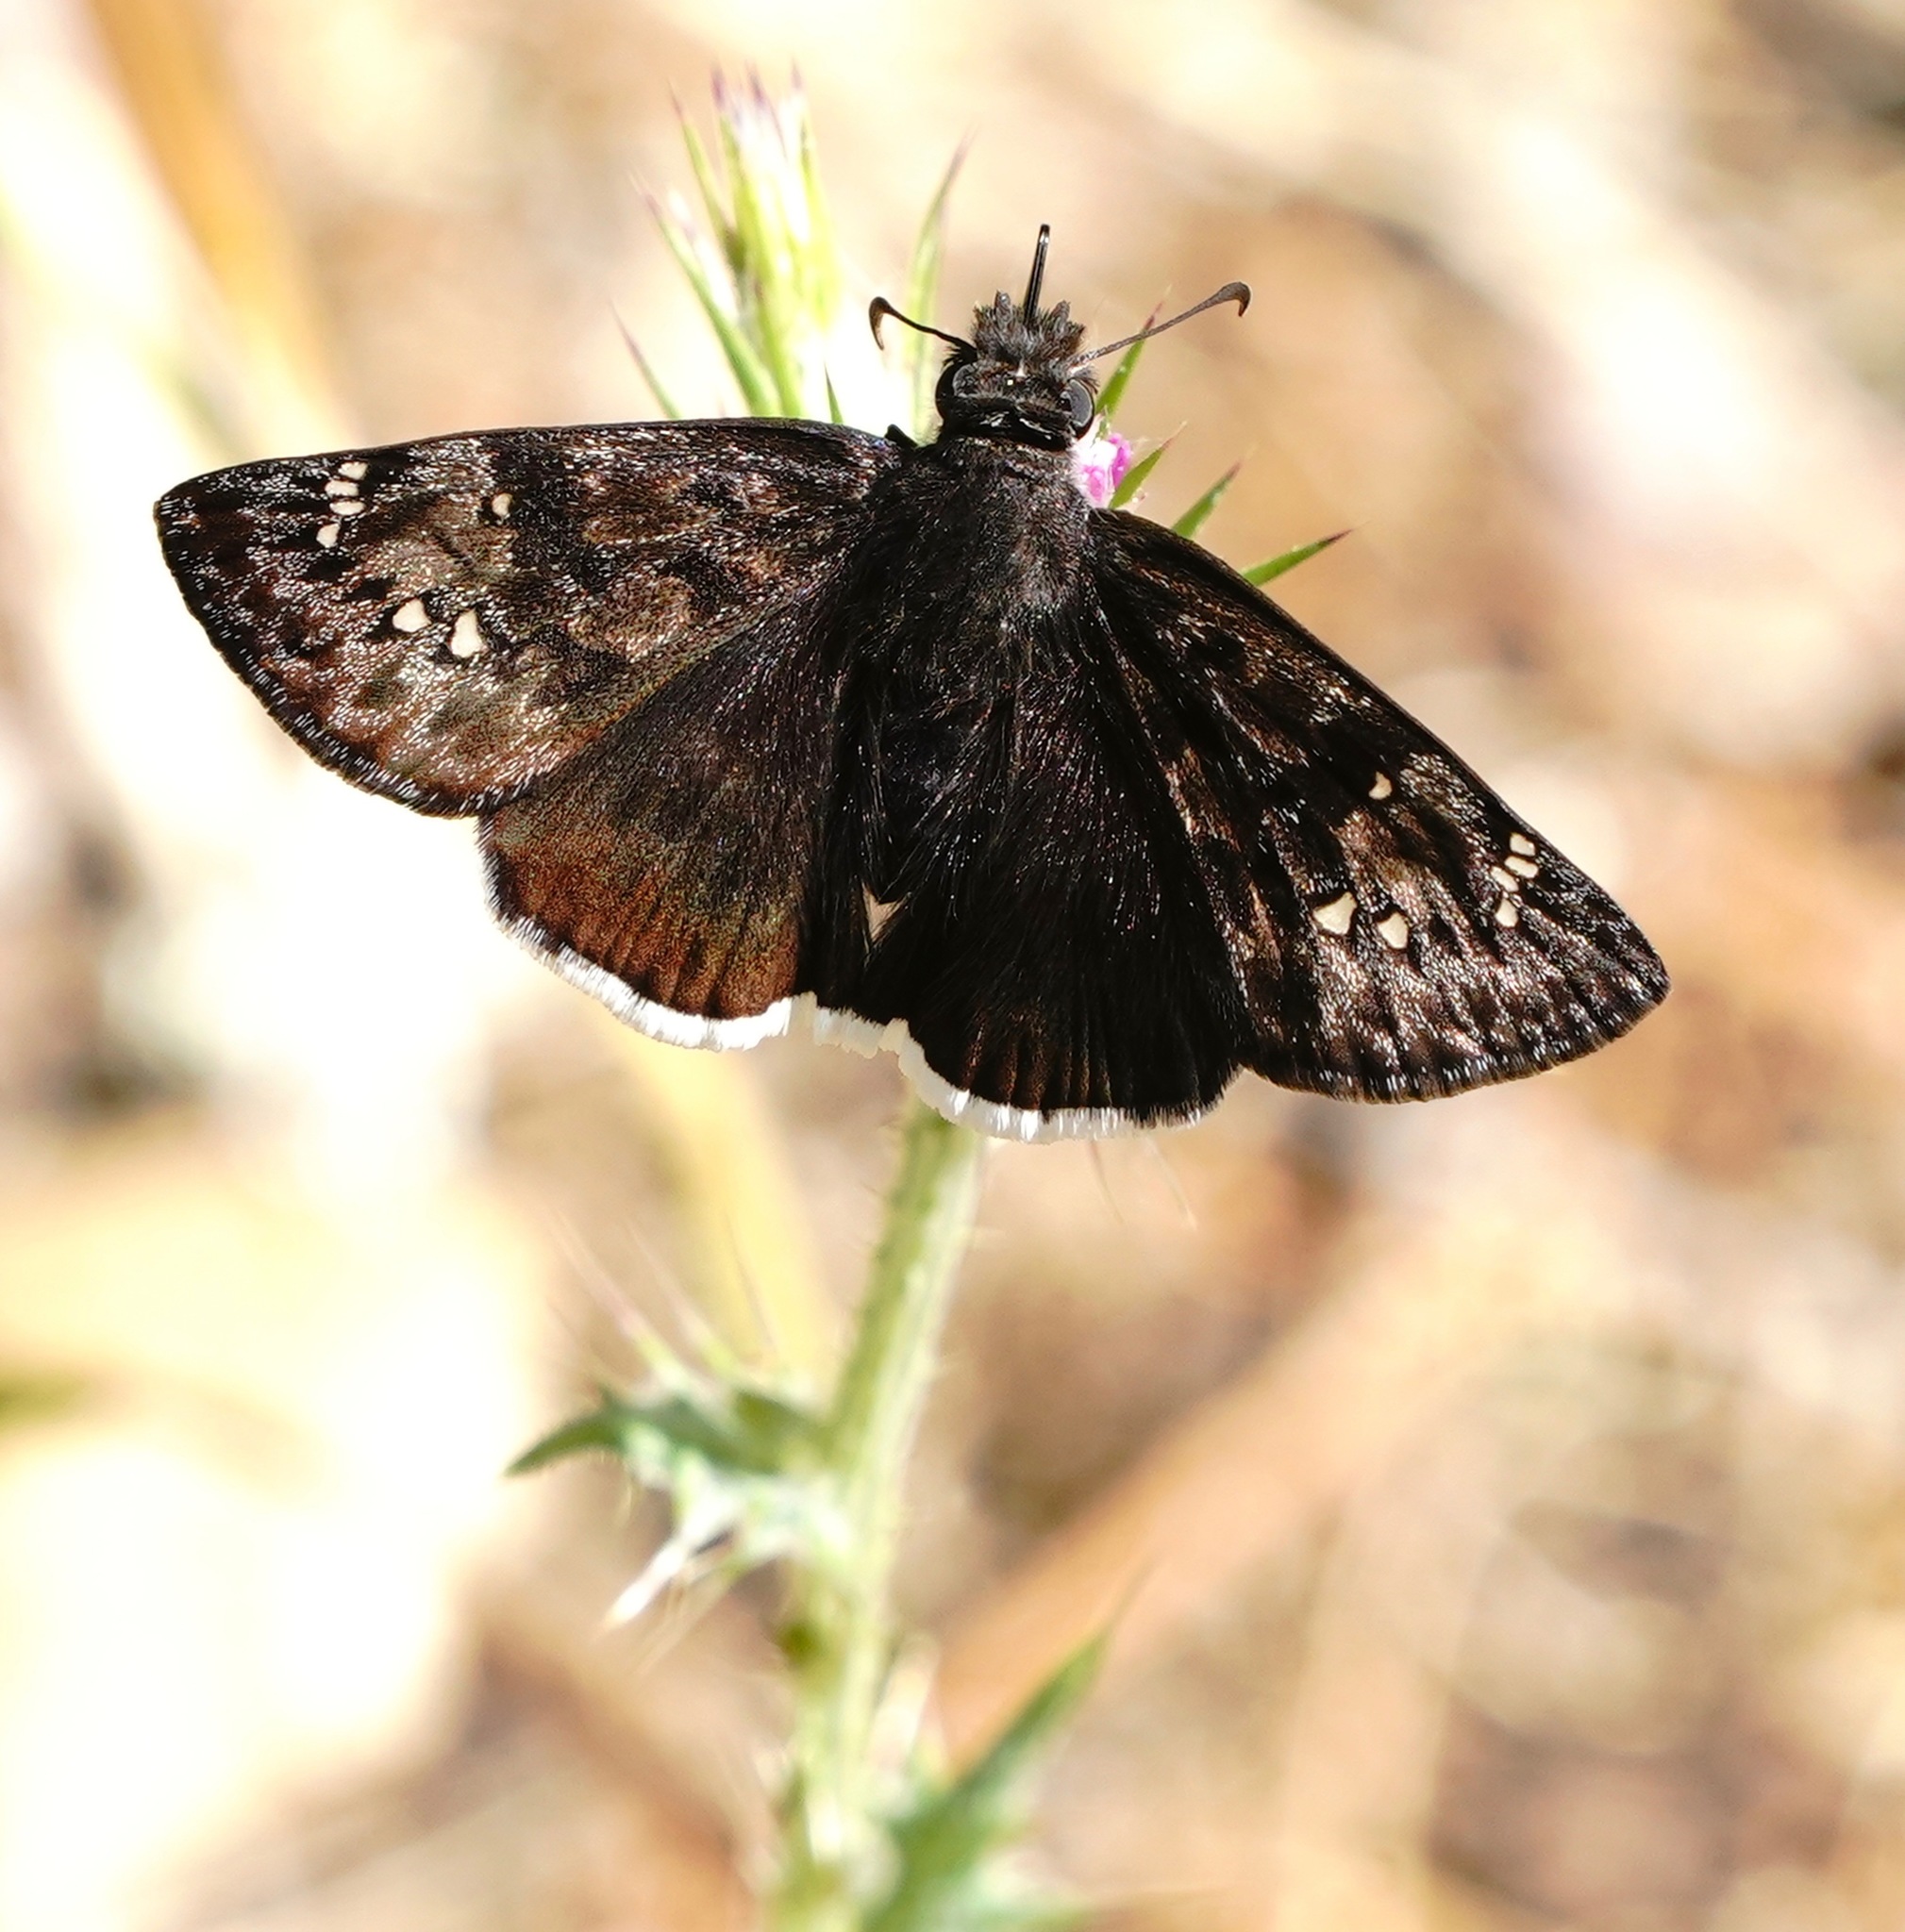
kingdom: Animalia
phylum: Arthropoda
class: Insecta
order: Lepidoptera
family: Hesperiidae
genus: Erynnis
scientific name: Erynnis tristis
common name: Mournful duskywing
